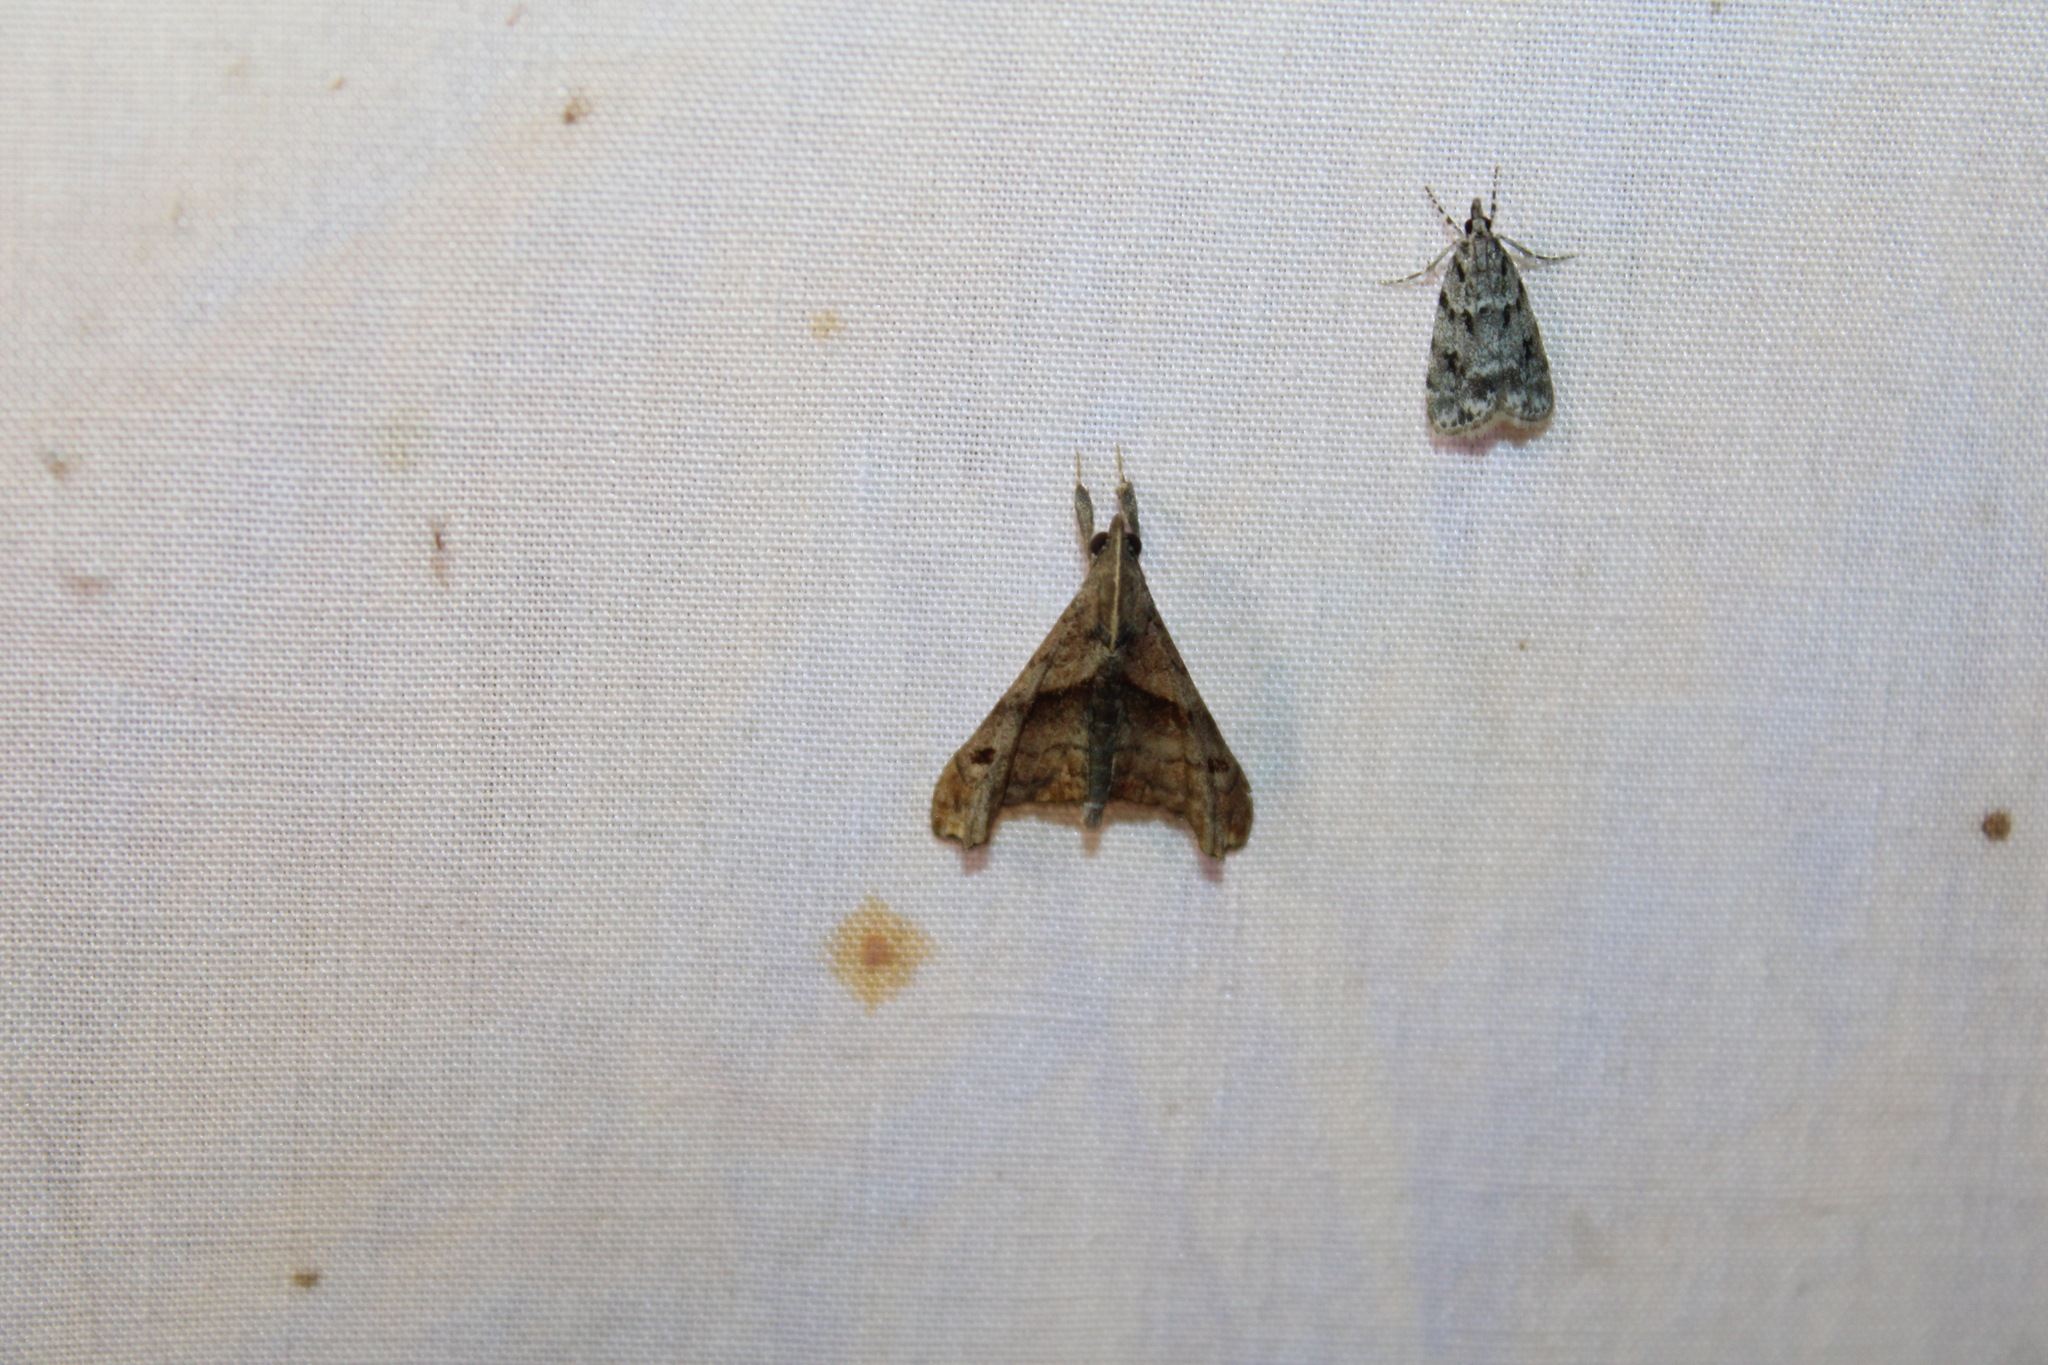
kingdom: Animalia
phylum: Arthropoda
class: Insecta
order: Lepidoptera
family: Erebidae
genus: Palthis
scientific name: Palthis angulalis
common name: Dark-spotted palthis moth
